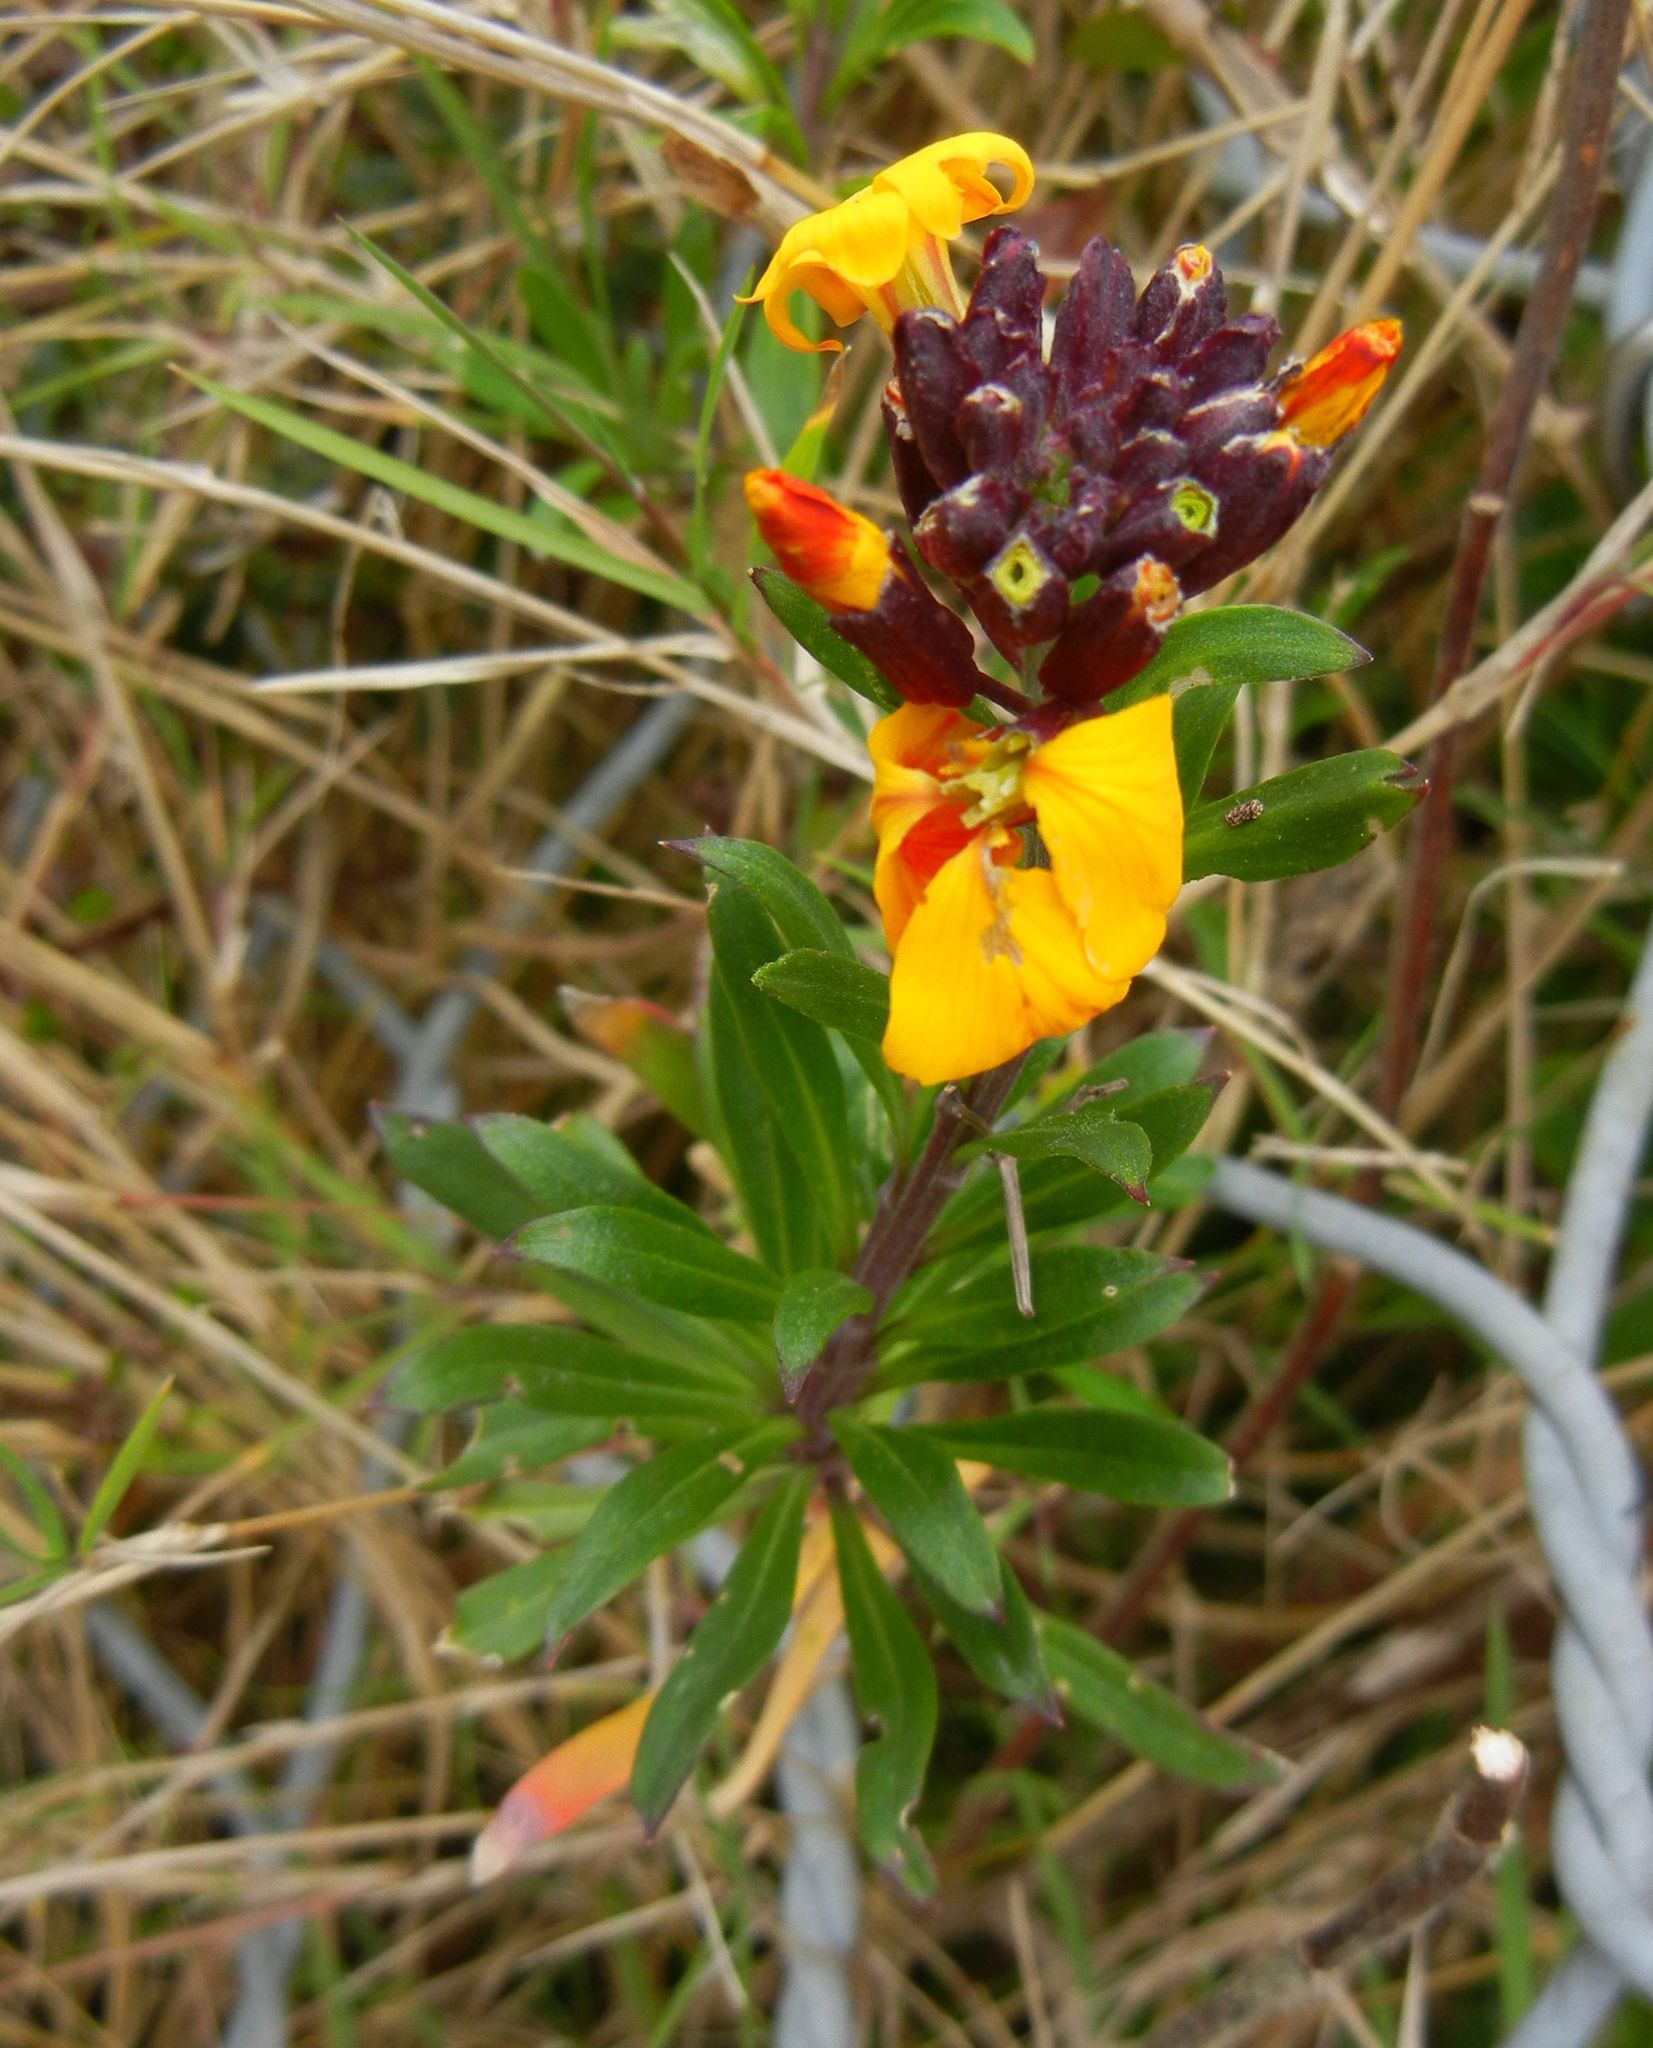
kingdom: Plantae
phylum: Tracheophyta
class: Magnoliopsida
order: Brassicales
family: Brassicaceae
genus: Erysimum
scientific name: Erysimum cheiri
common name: Wallflower
